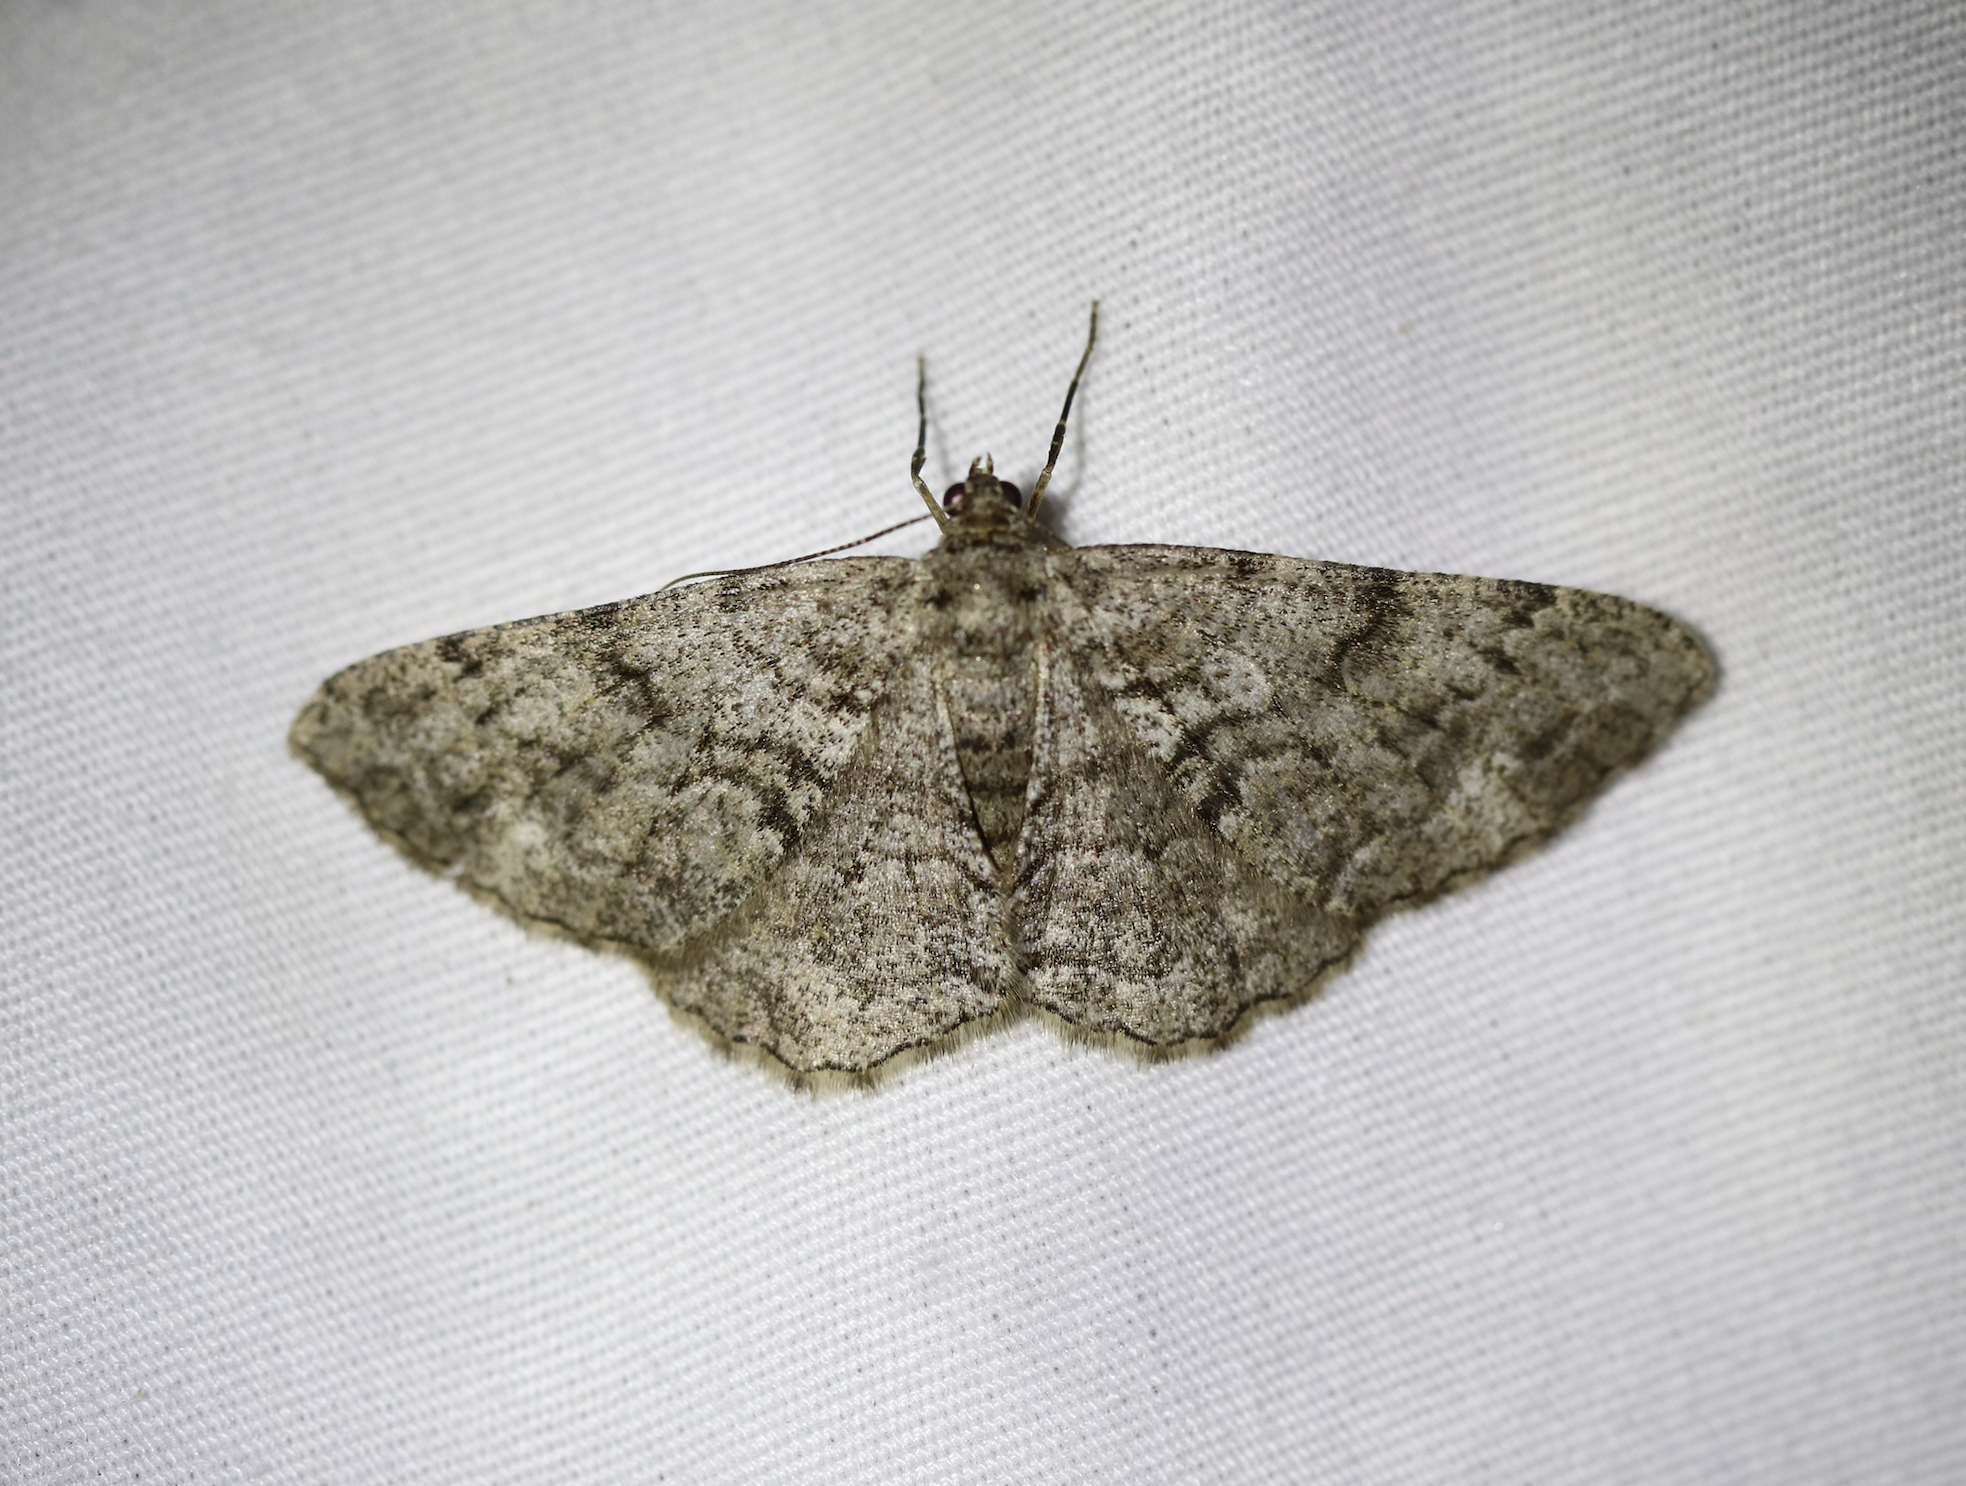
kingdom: Animalia
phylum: Arthropoda
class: Insecta
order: Lepidoptera
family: Geometridae
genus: Peribatodes
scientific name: Peribatodes secundaria
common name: Feathered beauty
